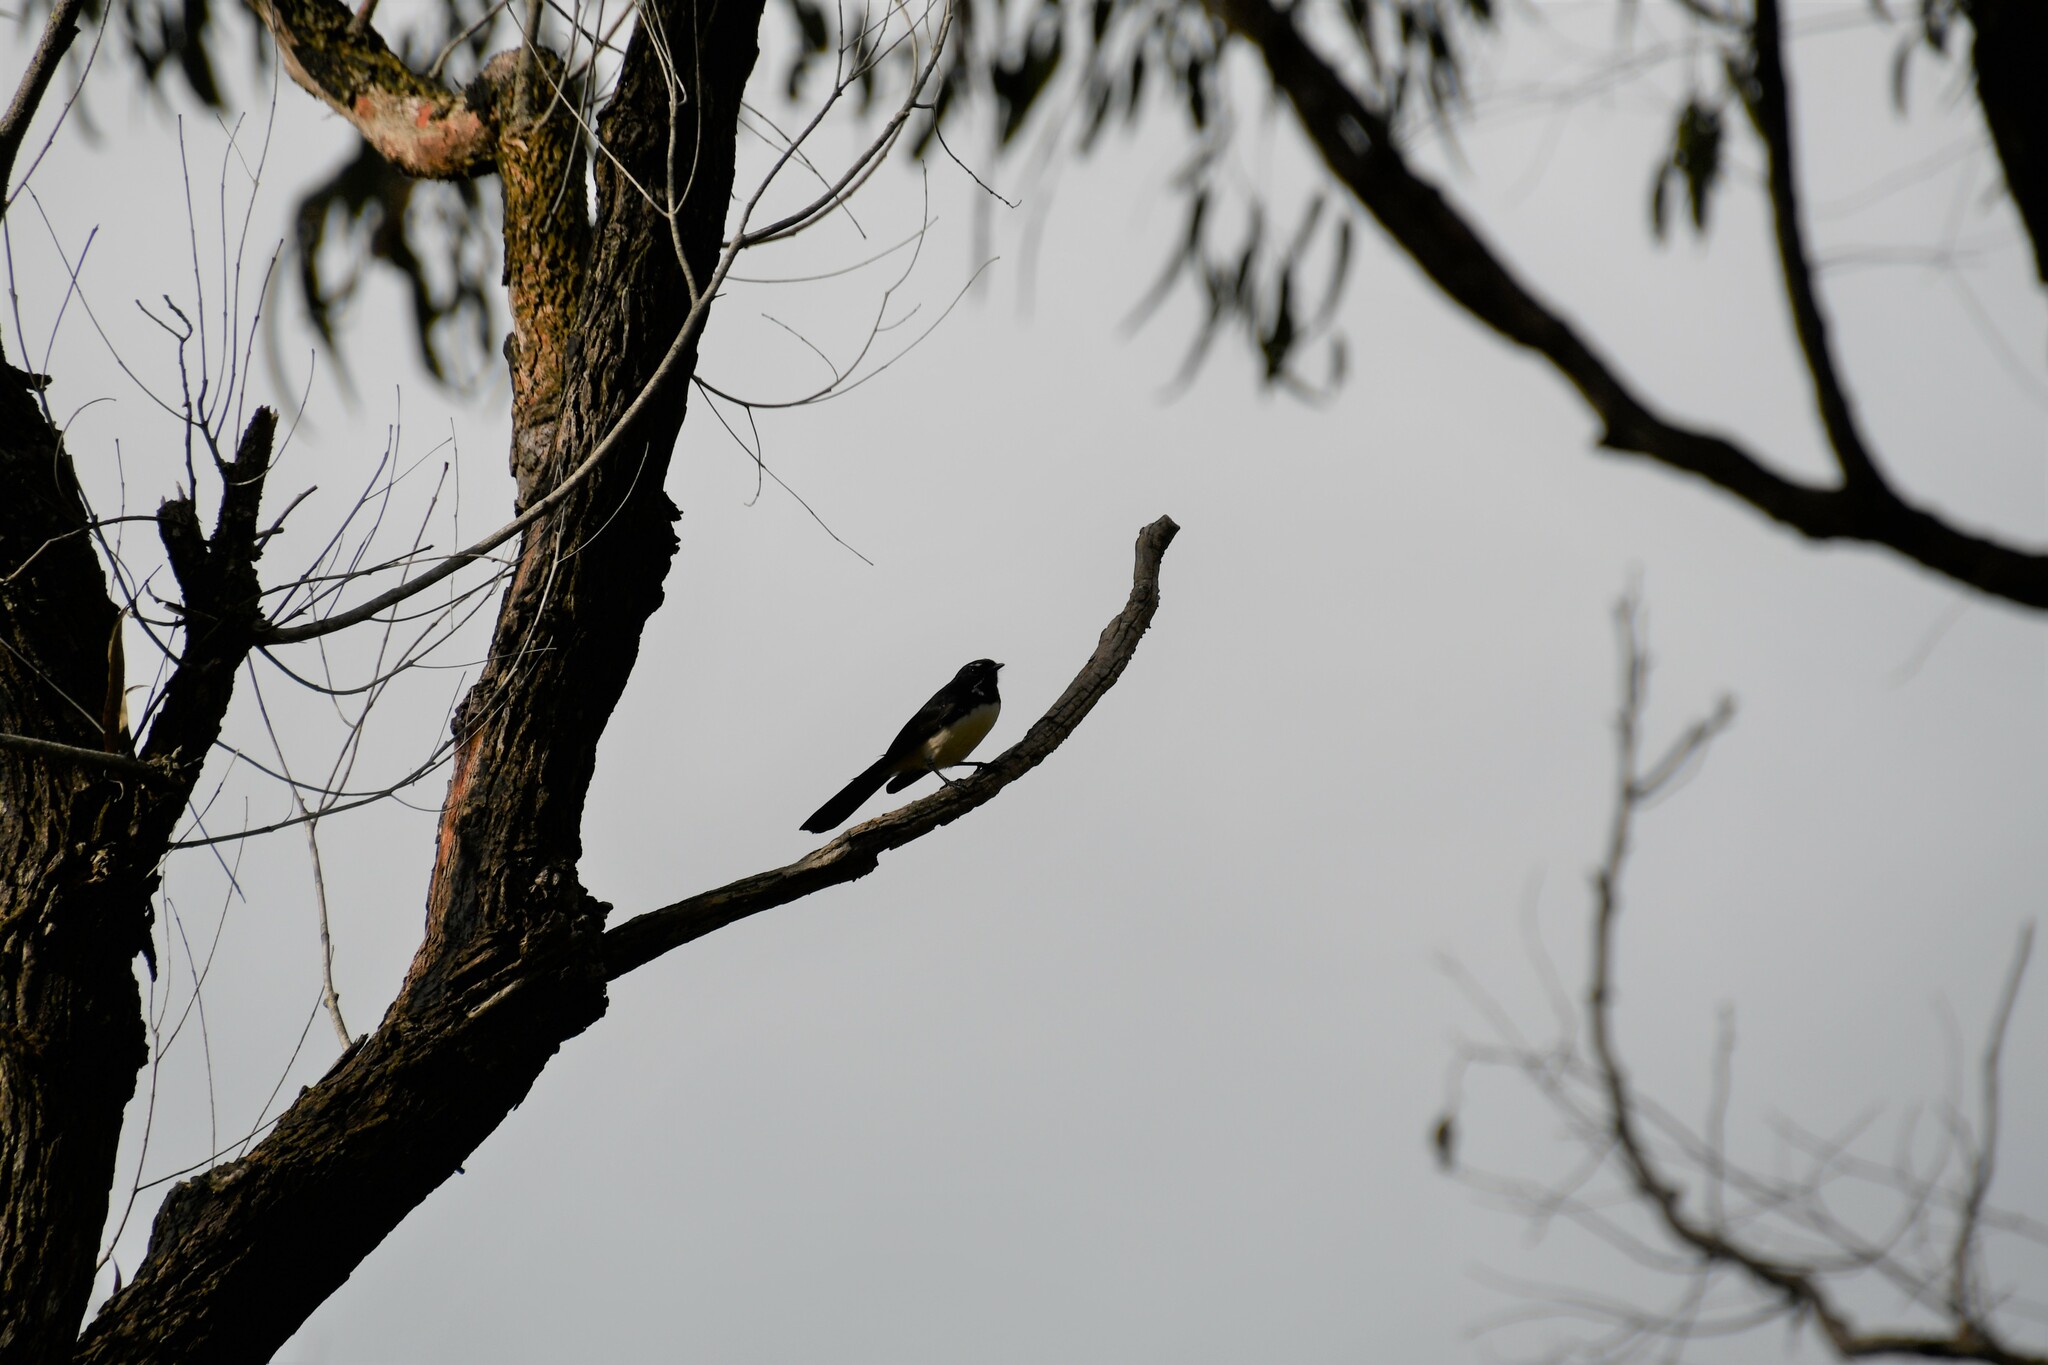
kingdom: Animalia
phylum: Chordata
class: Aves
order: Passeriformes
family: Rhipiduridae
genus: Rhipidura
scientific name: Rhipidura leucophrys
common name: Willie wagtail
